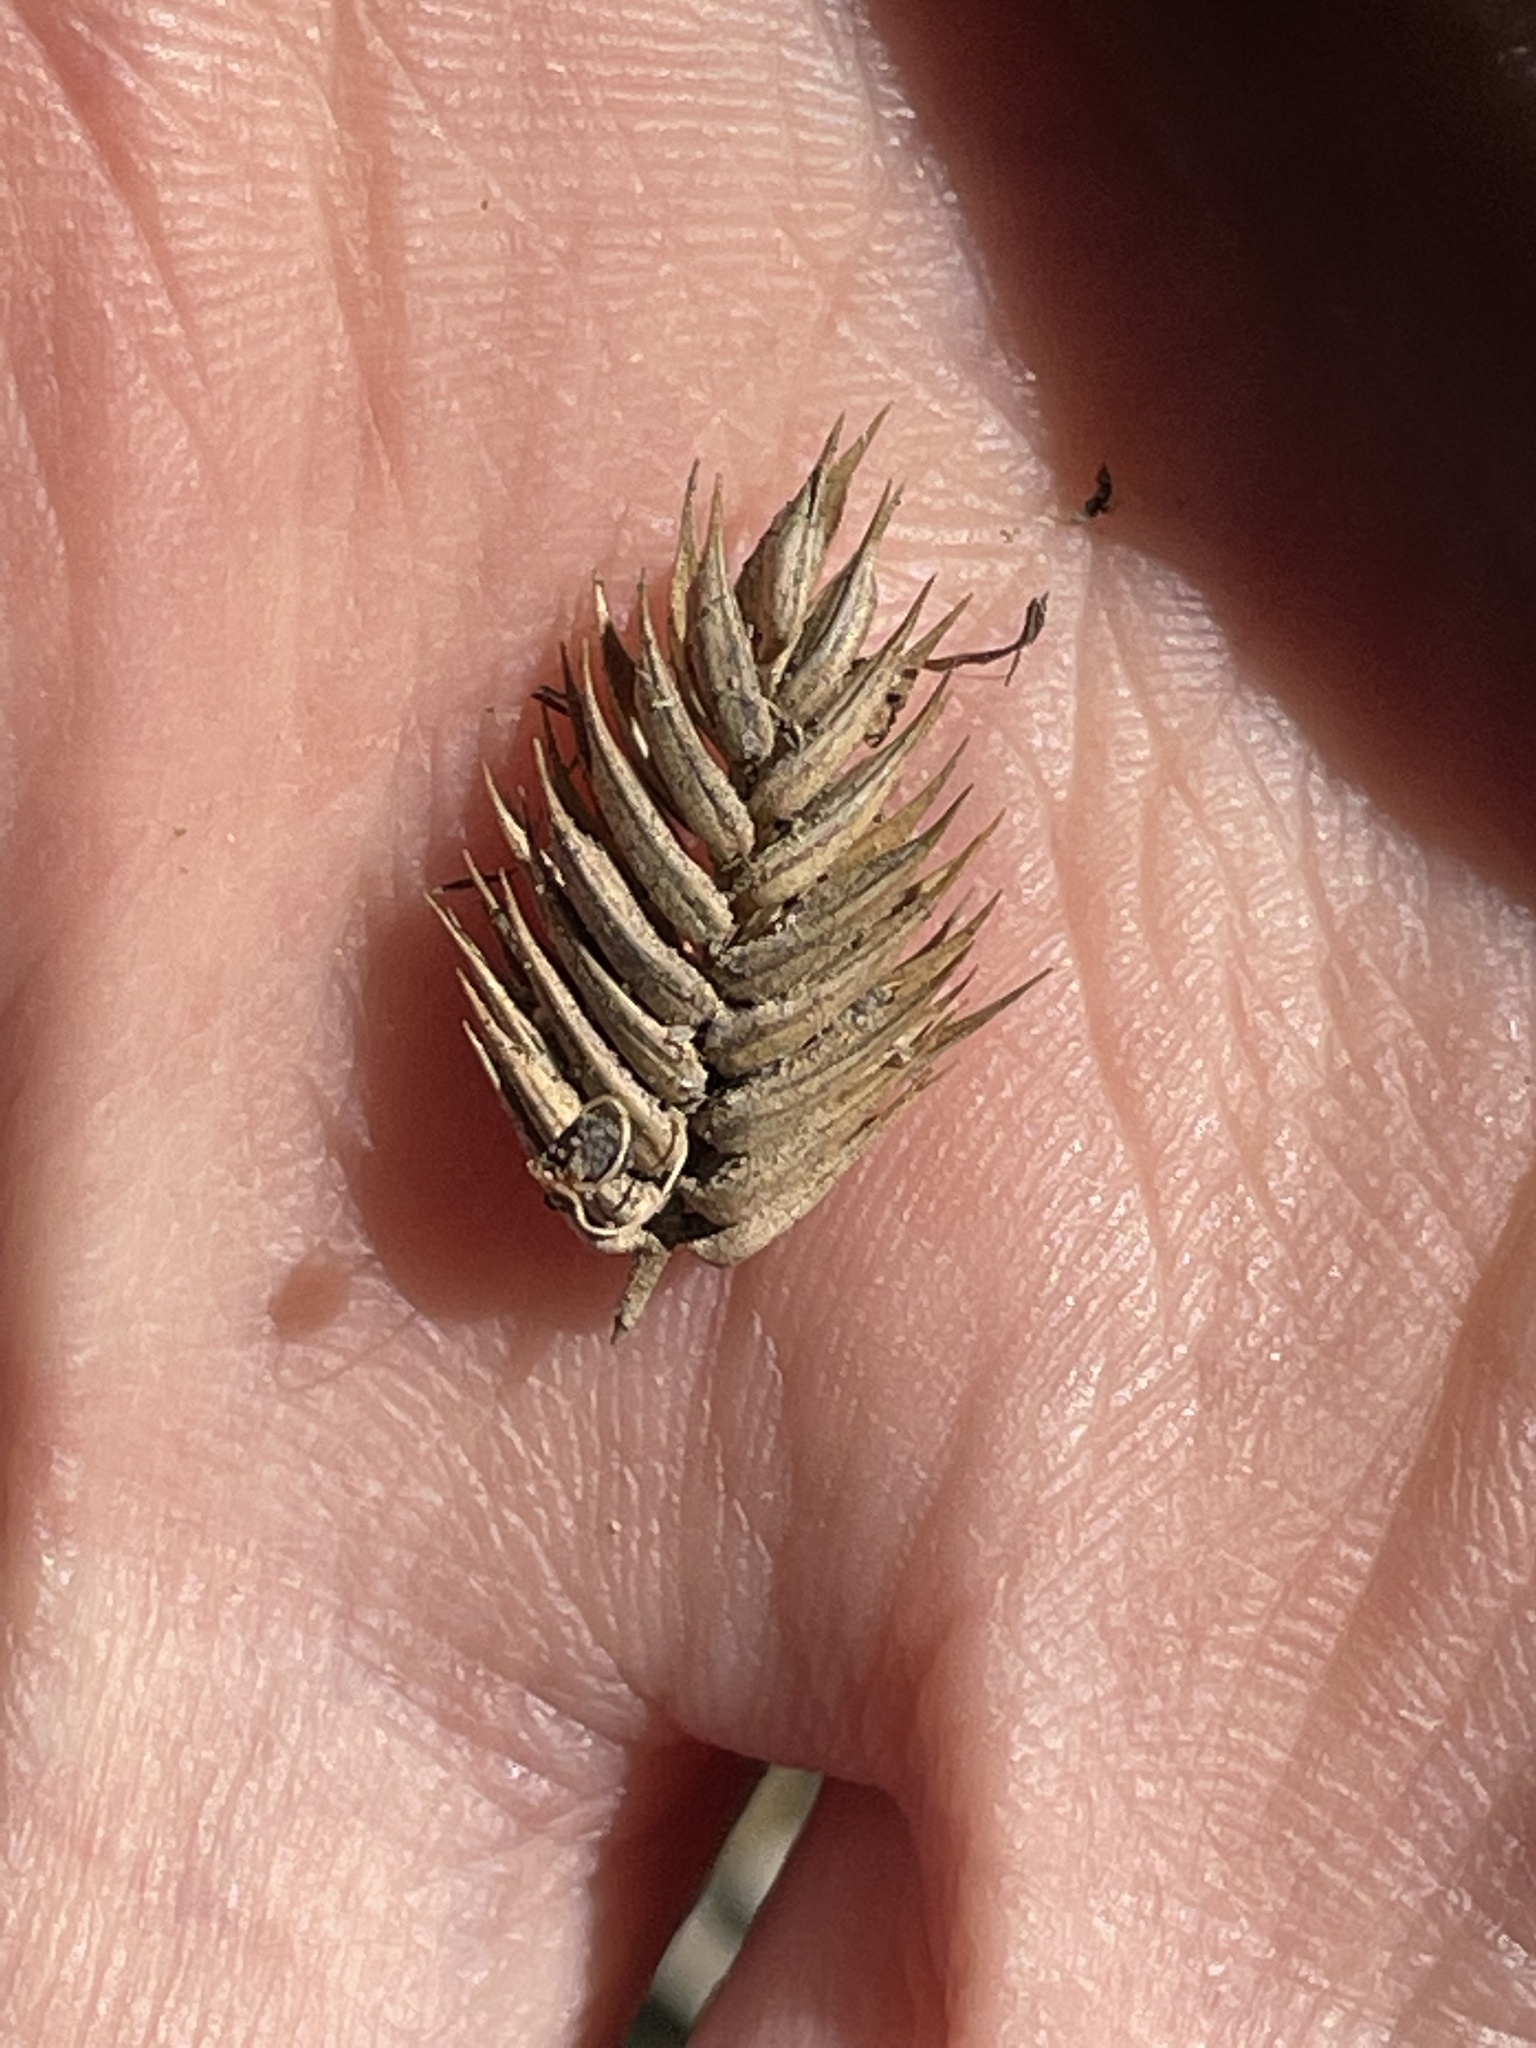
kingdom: Plantae
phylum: Tracheophyta
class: Liliopsida
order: Poales
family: Poaceae
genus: Agropyron
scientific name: Agropyron cristatum
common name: Crested wheatgrass
